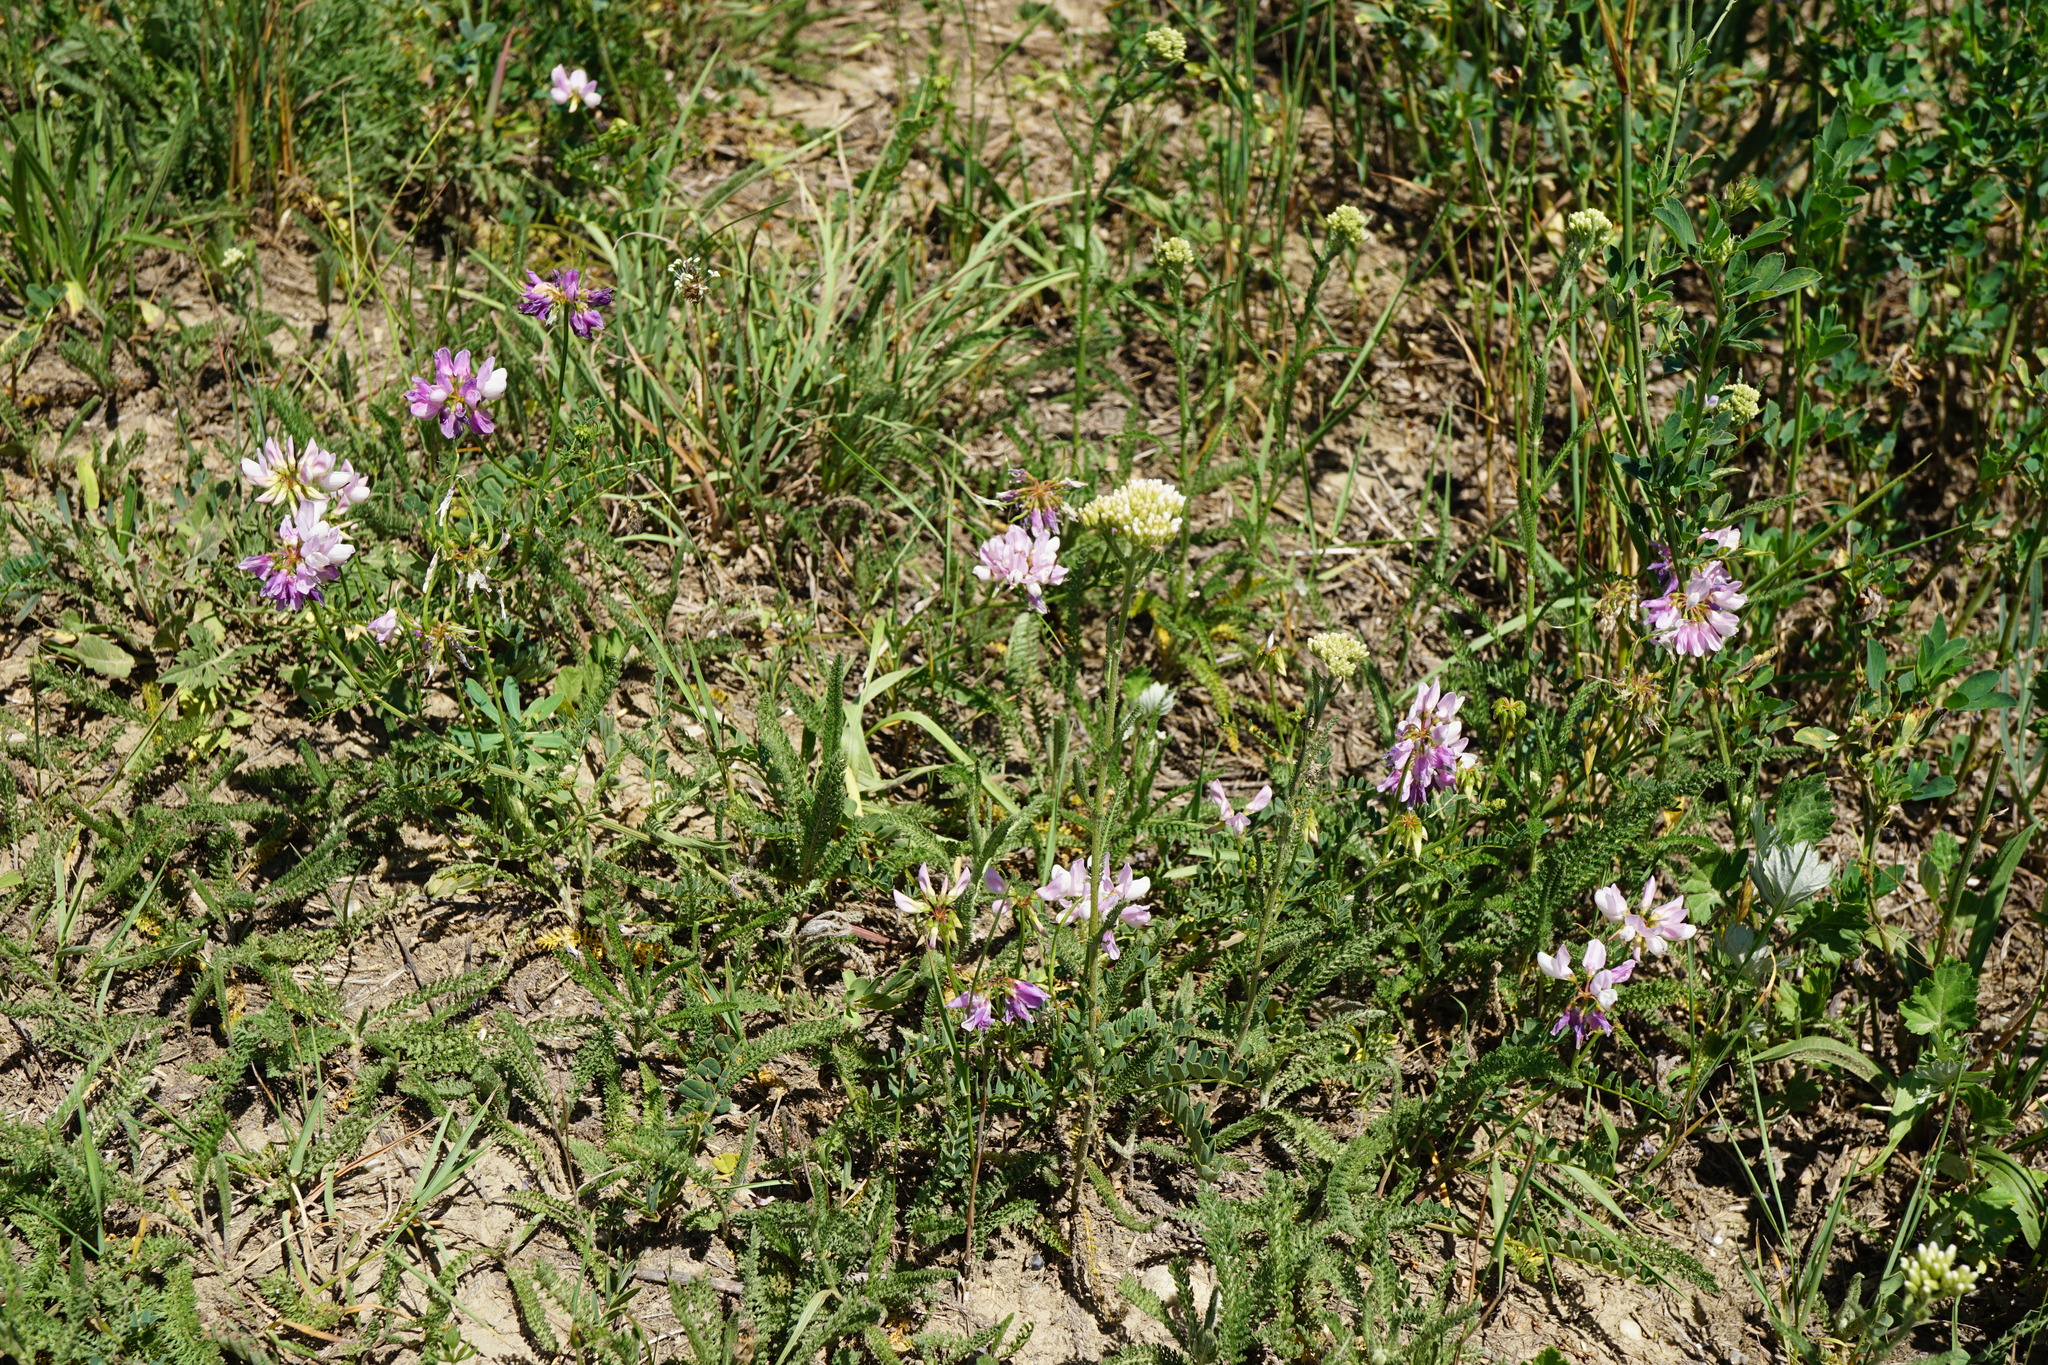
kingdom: Plantae
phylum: Tracheophyta
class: Magnoliopsida
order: Fabales
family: Fabaceae
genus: Coronilla
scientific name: Coronilla varia
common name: Crownvetch
